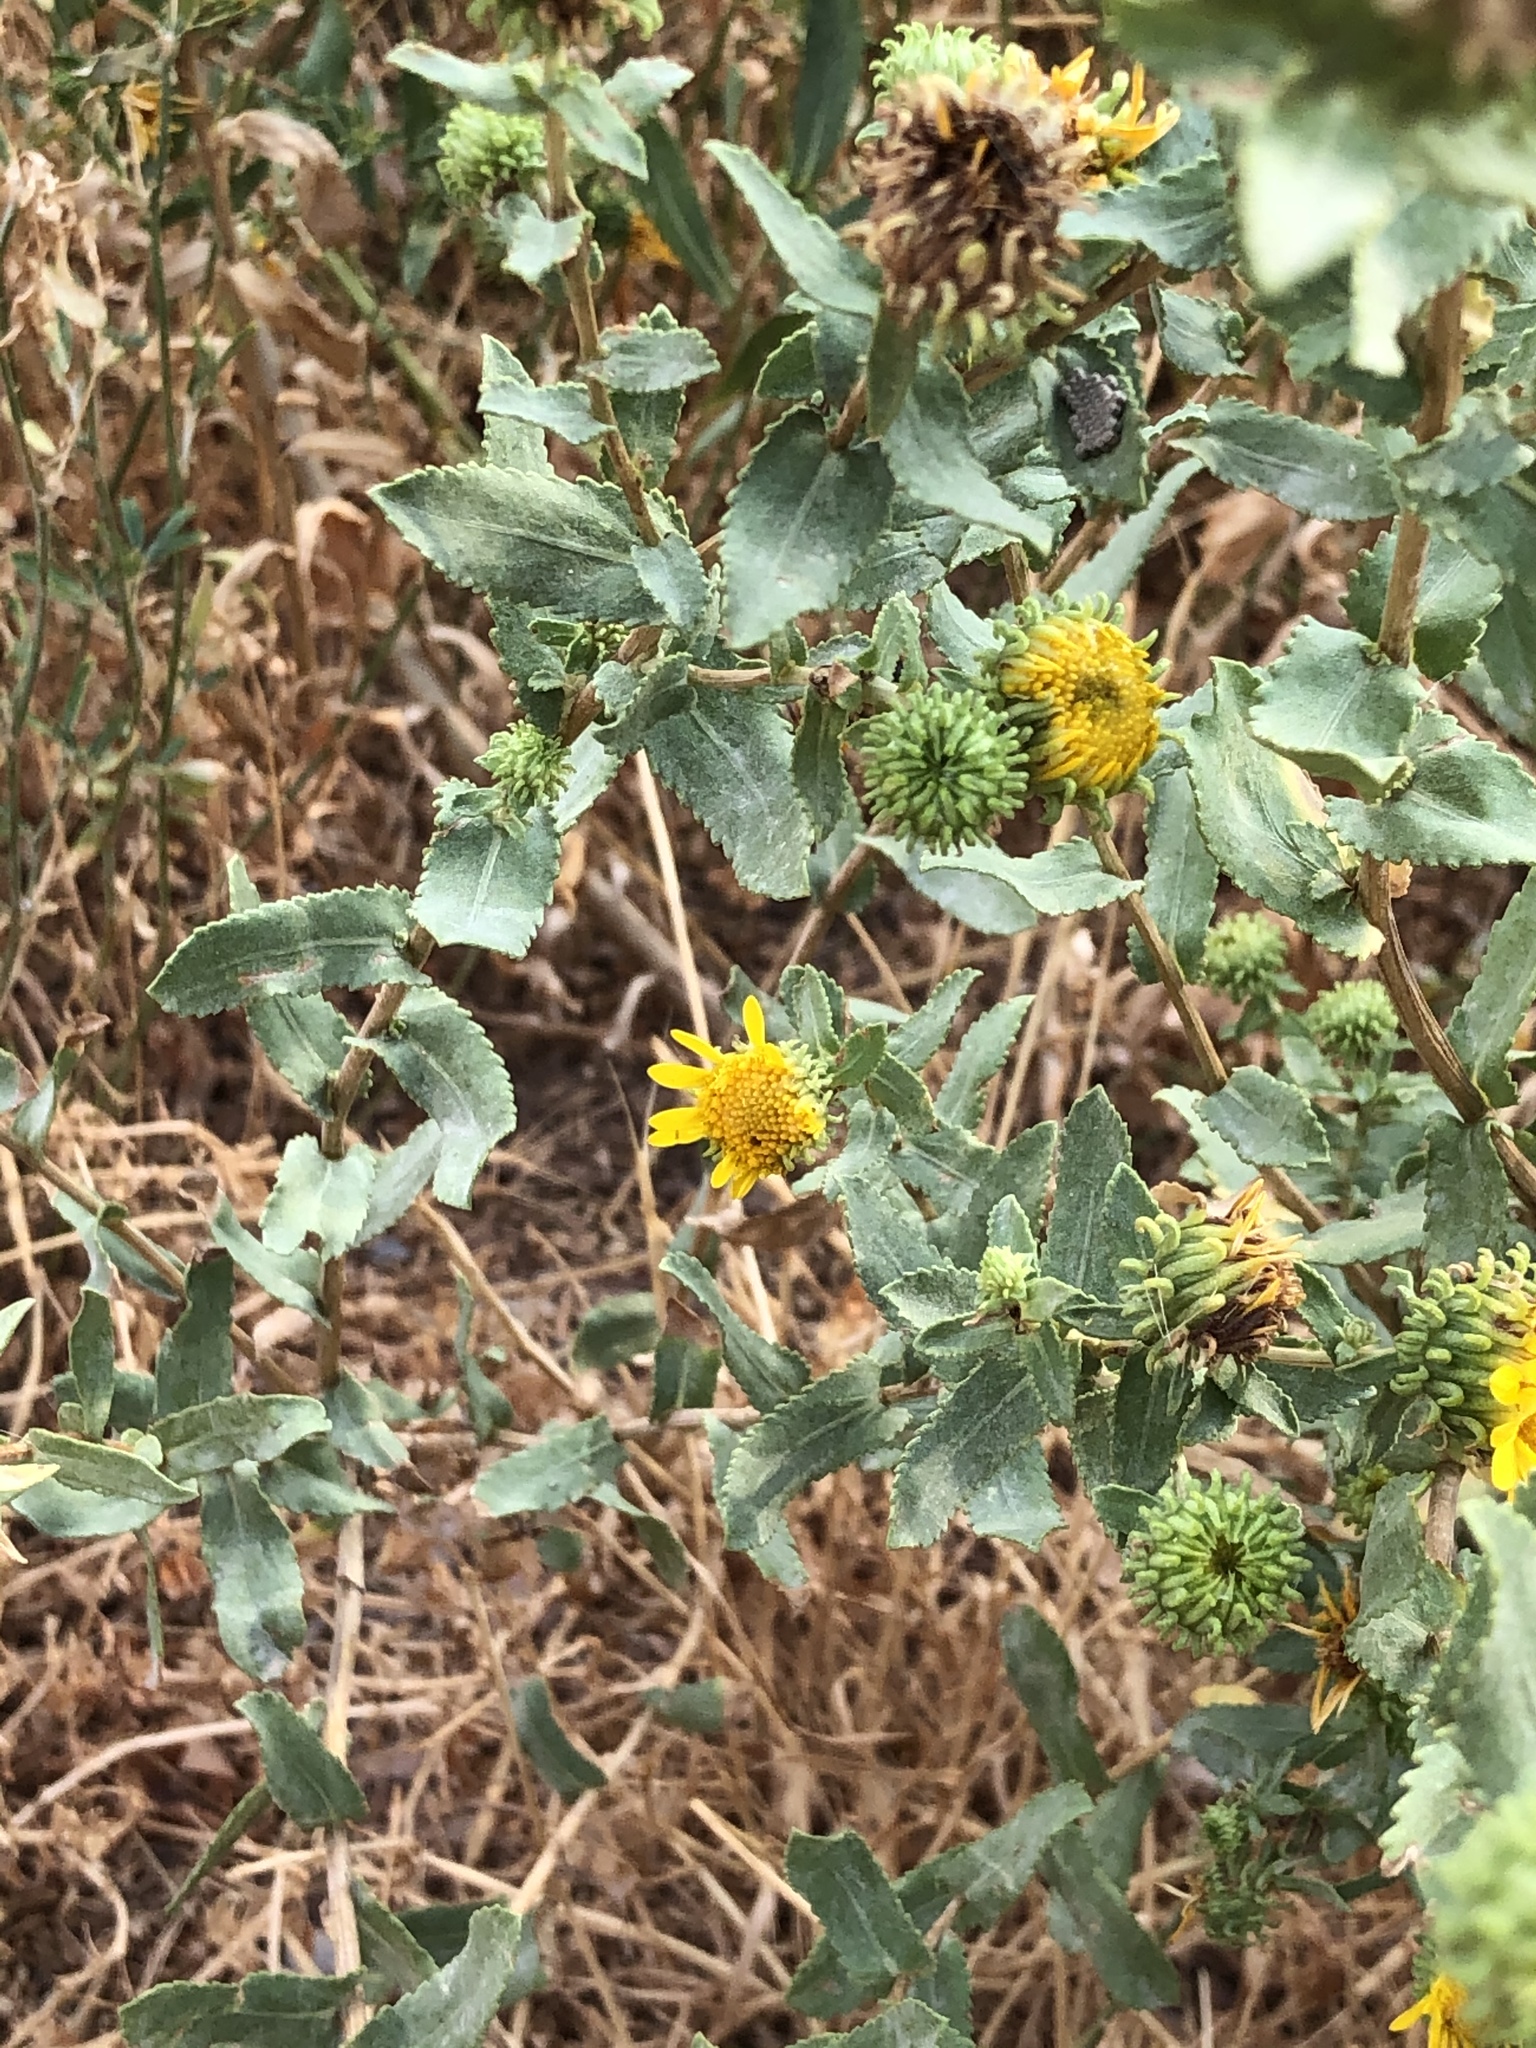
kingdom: Plantae
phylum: Tracheophyta
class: Magnoliopsida
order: Asterales
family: Asteraceae
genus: Grindelia
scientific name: Grindelia squarrosa
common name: Curly-cup gumweed
